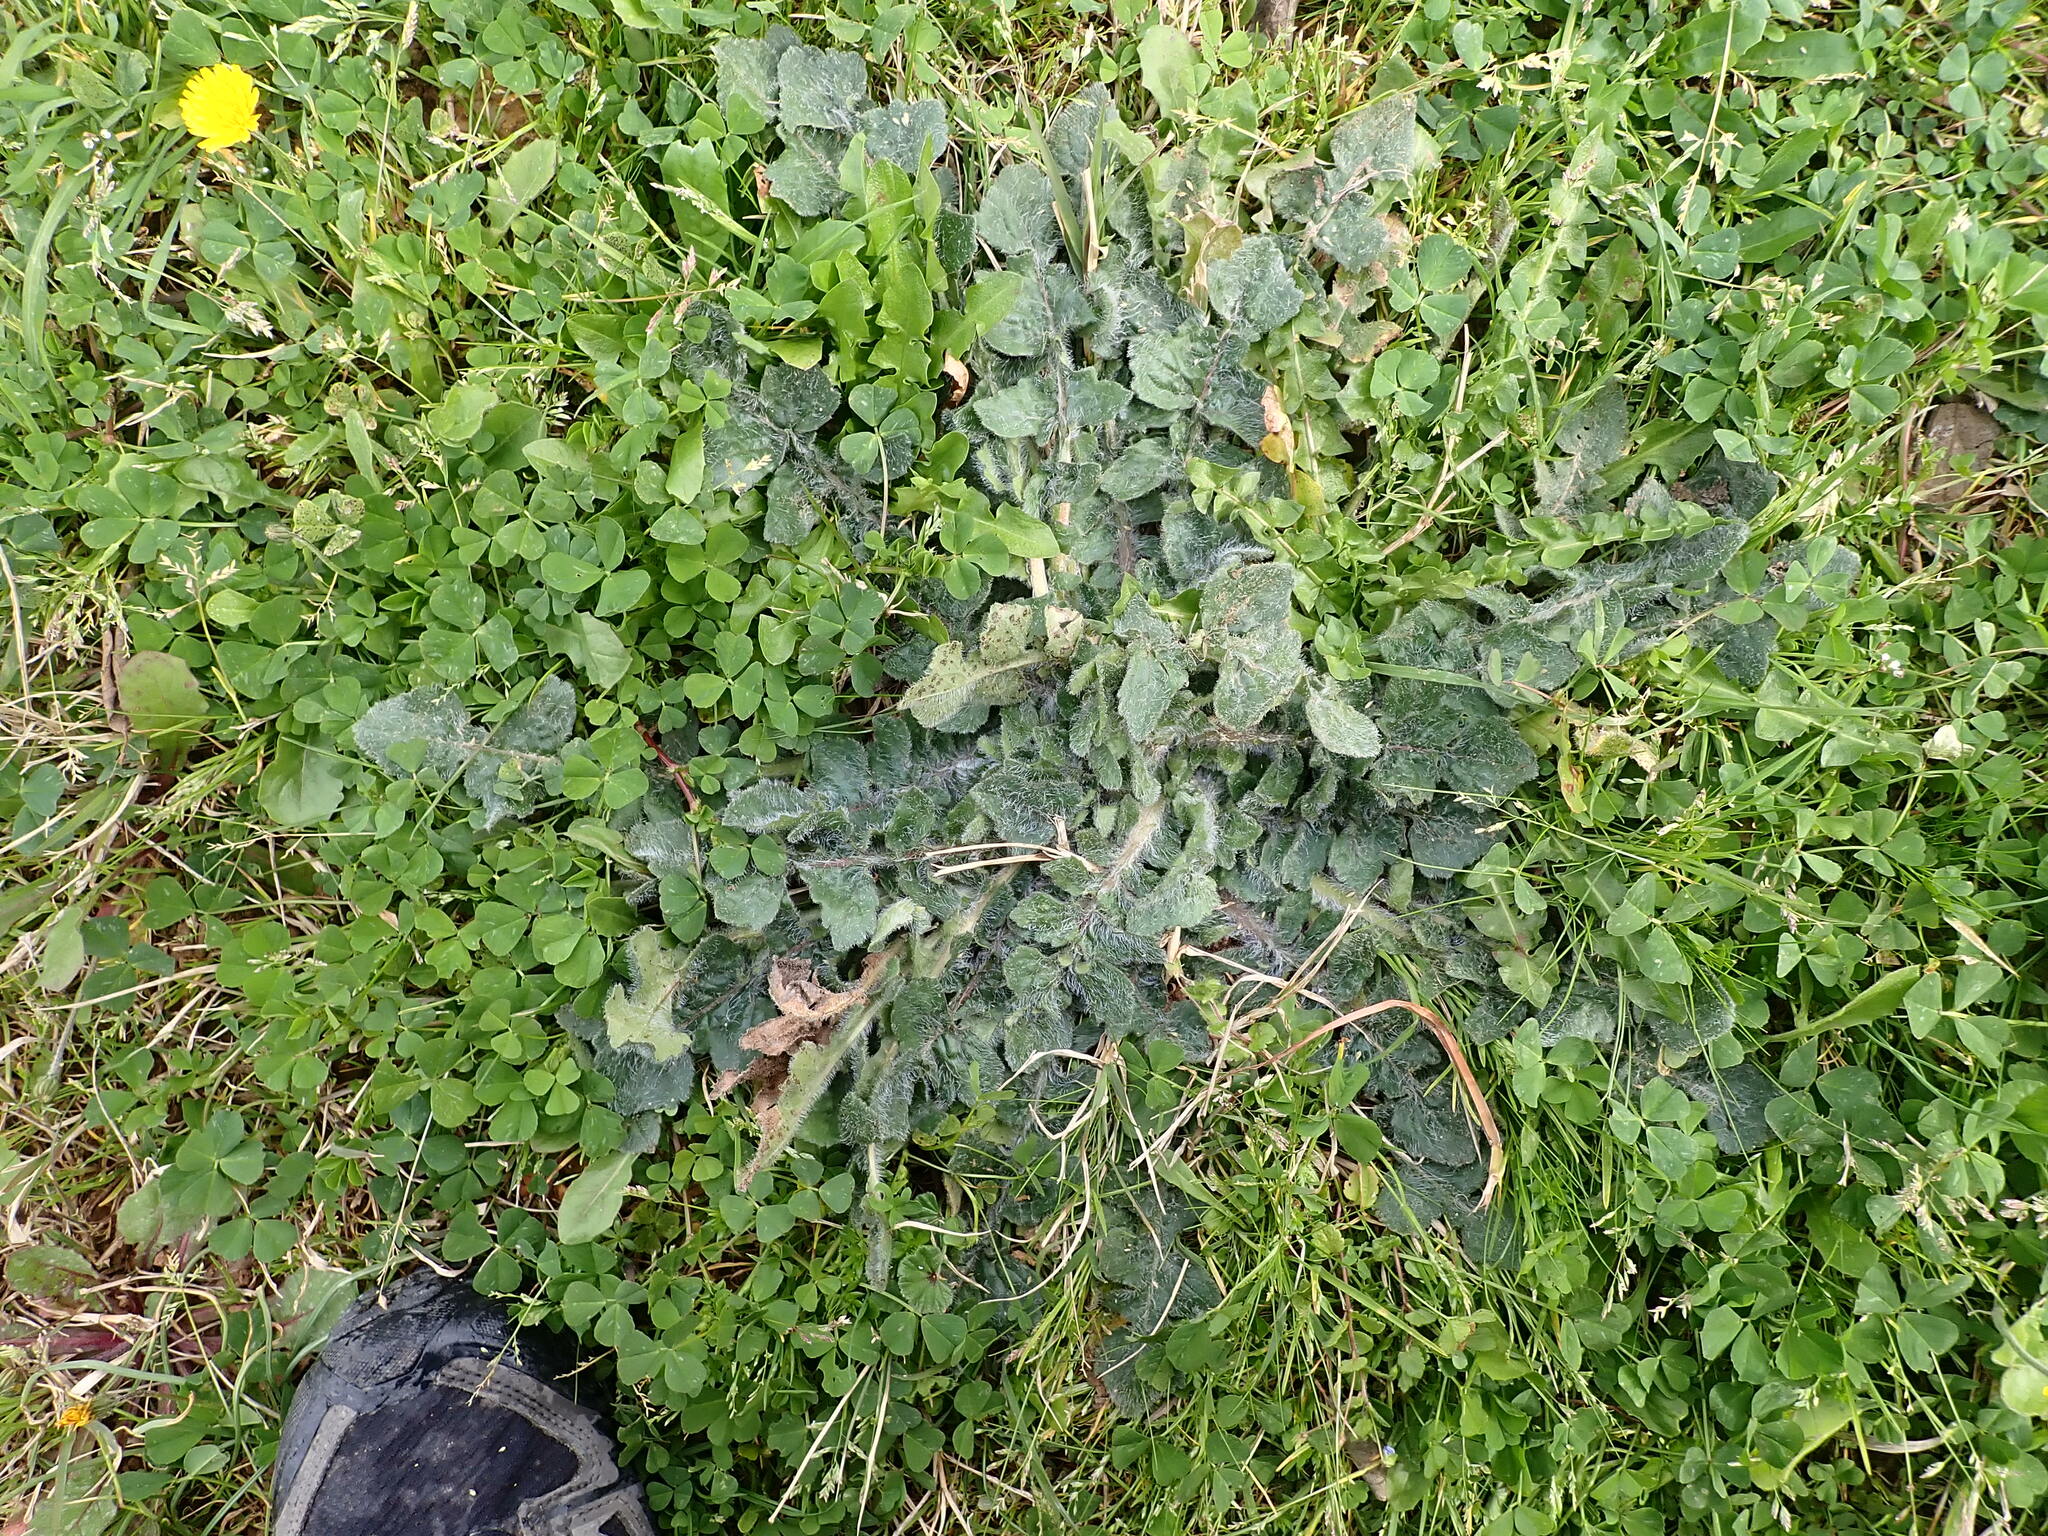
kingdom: Plantae
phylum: Tracheophyta
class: Magnoliopsida
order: Asterales
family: Asteraceae
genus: Mantisalca
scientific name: Mantisalca salmantica
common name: Dagger flower
